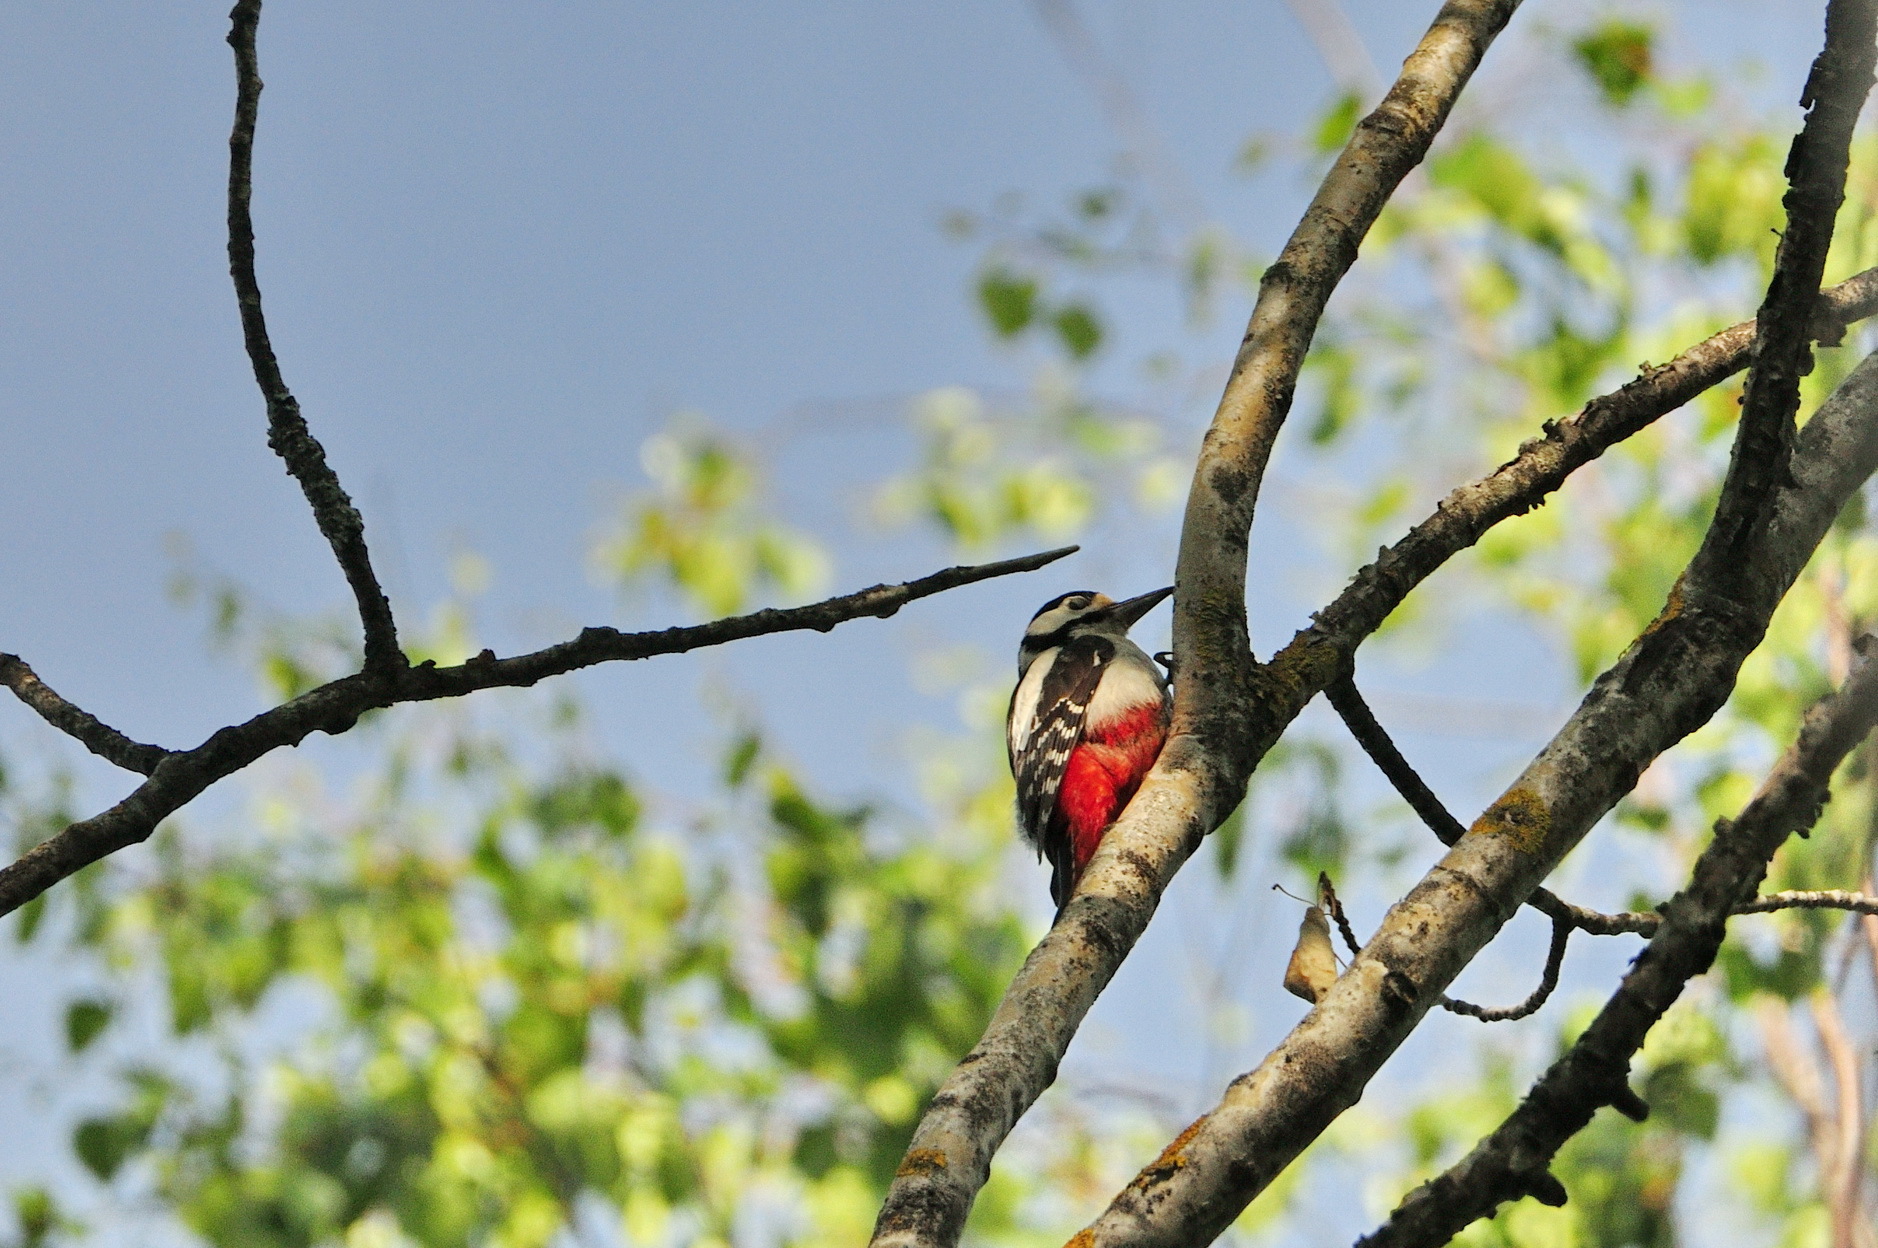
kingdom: Animalia
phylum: Chordata
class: Aves
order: Piciformes
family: Picidae
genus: Dendrocopos
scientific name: Dendrocopos major
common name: Great spotted woodpecker
